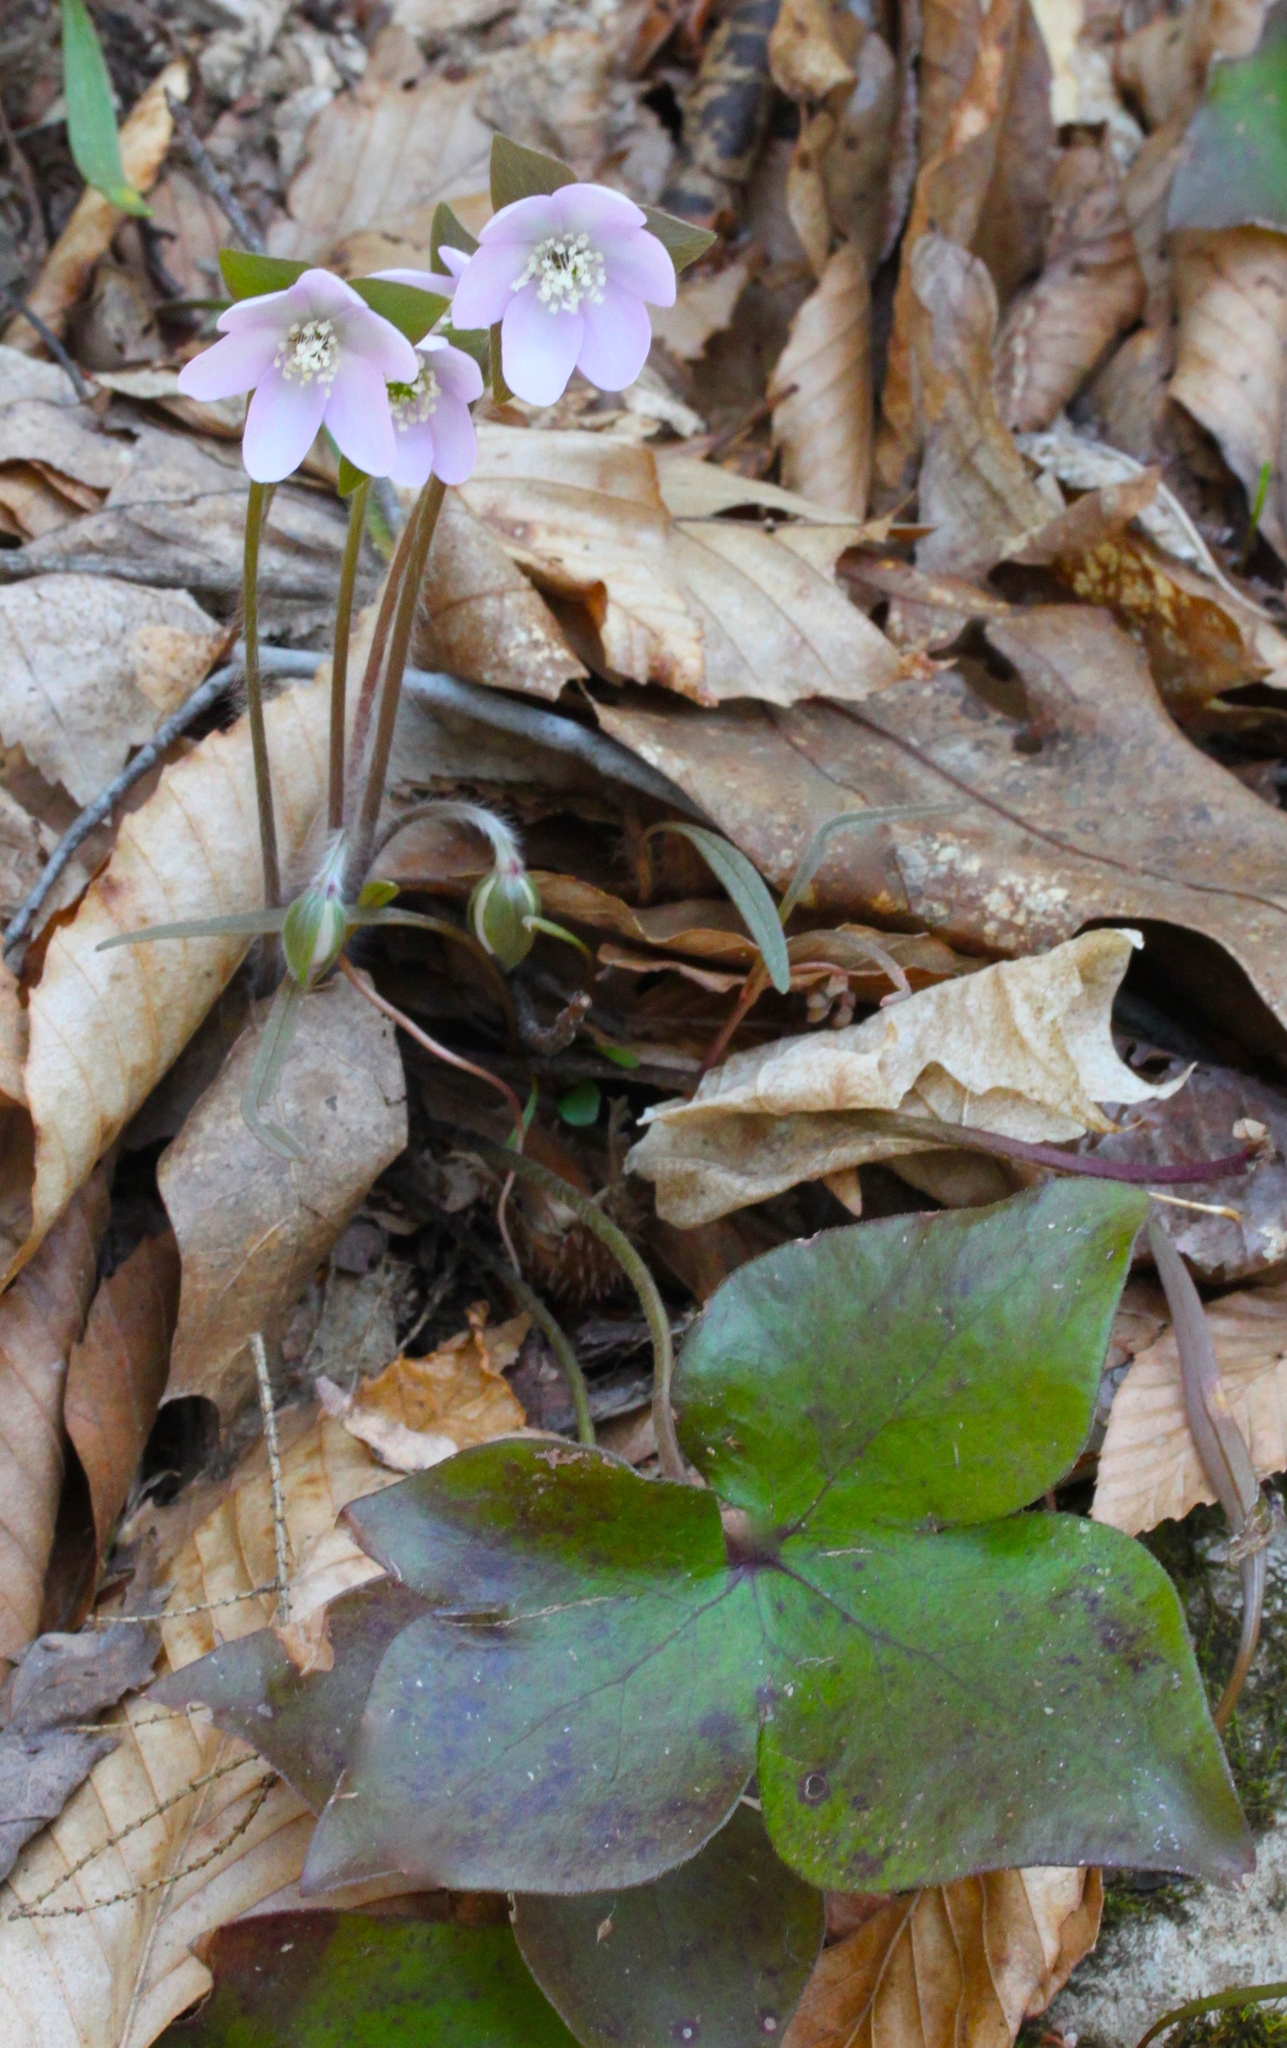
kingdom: Plantae
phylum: Tracheophyta
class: Magnoliopsida
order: Ranunculales
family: Ranunculaceae
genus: Hepatica
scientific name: Hepatica acutiloba
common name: Sharp-lobed hepatica
